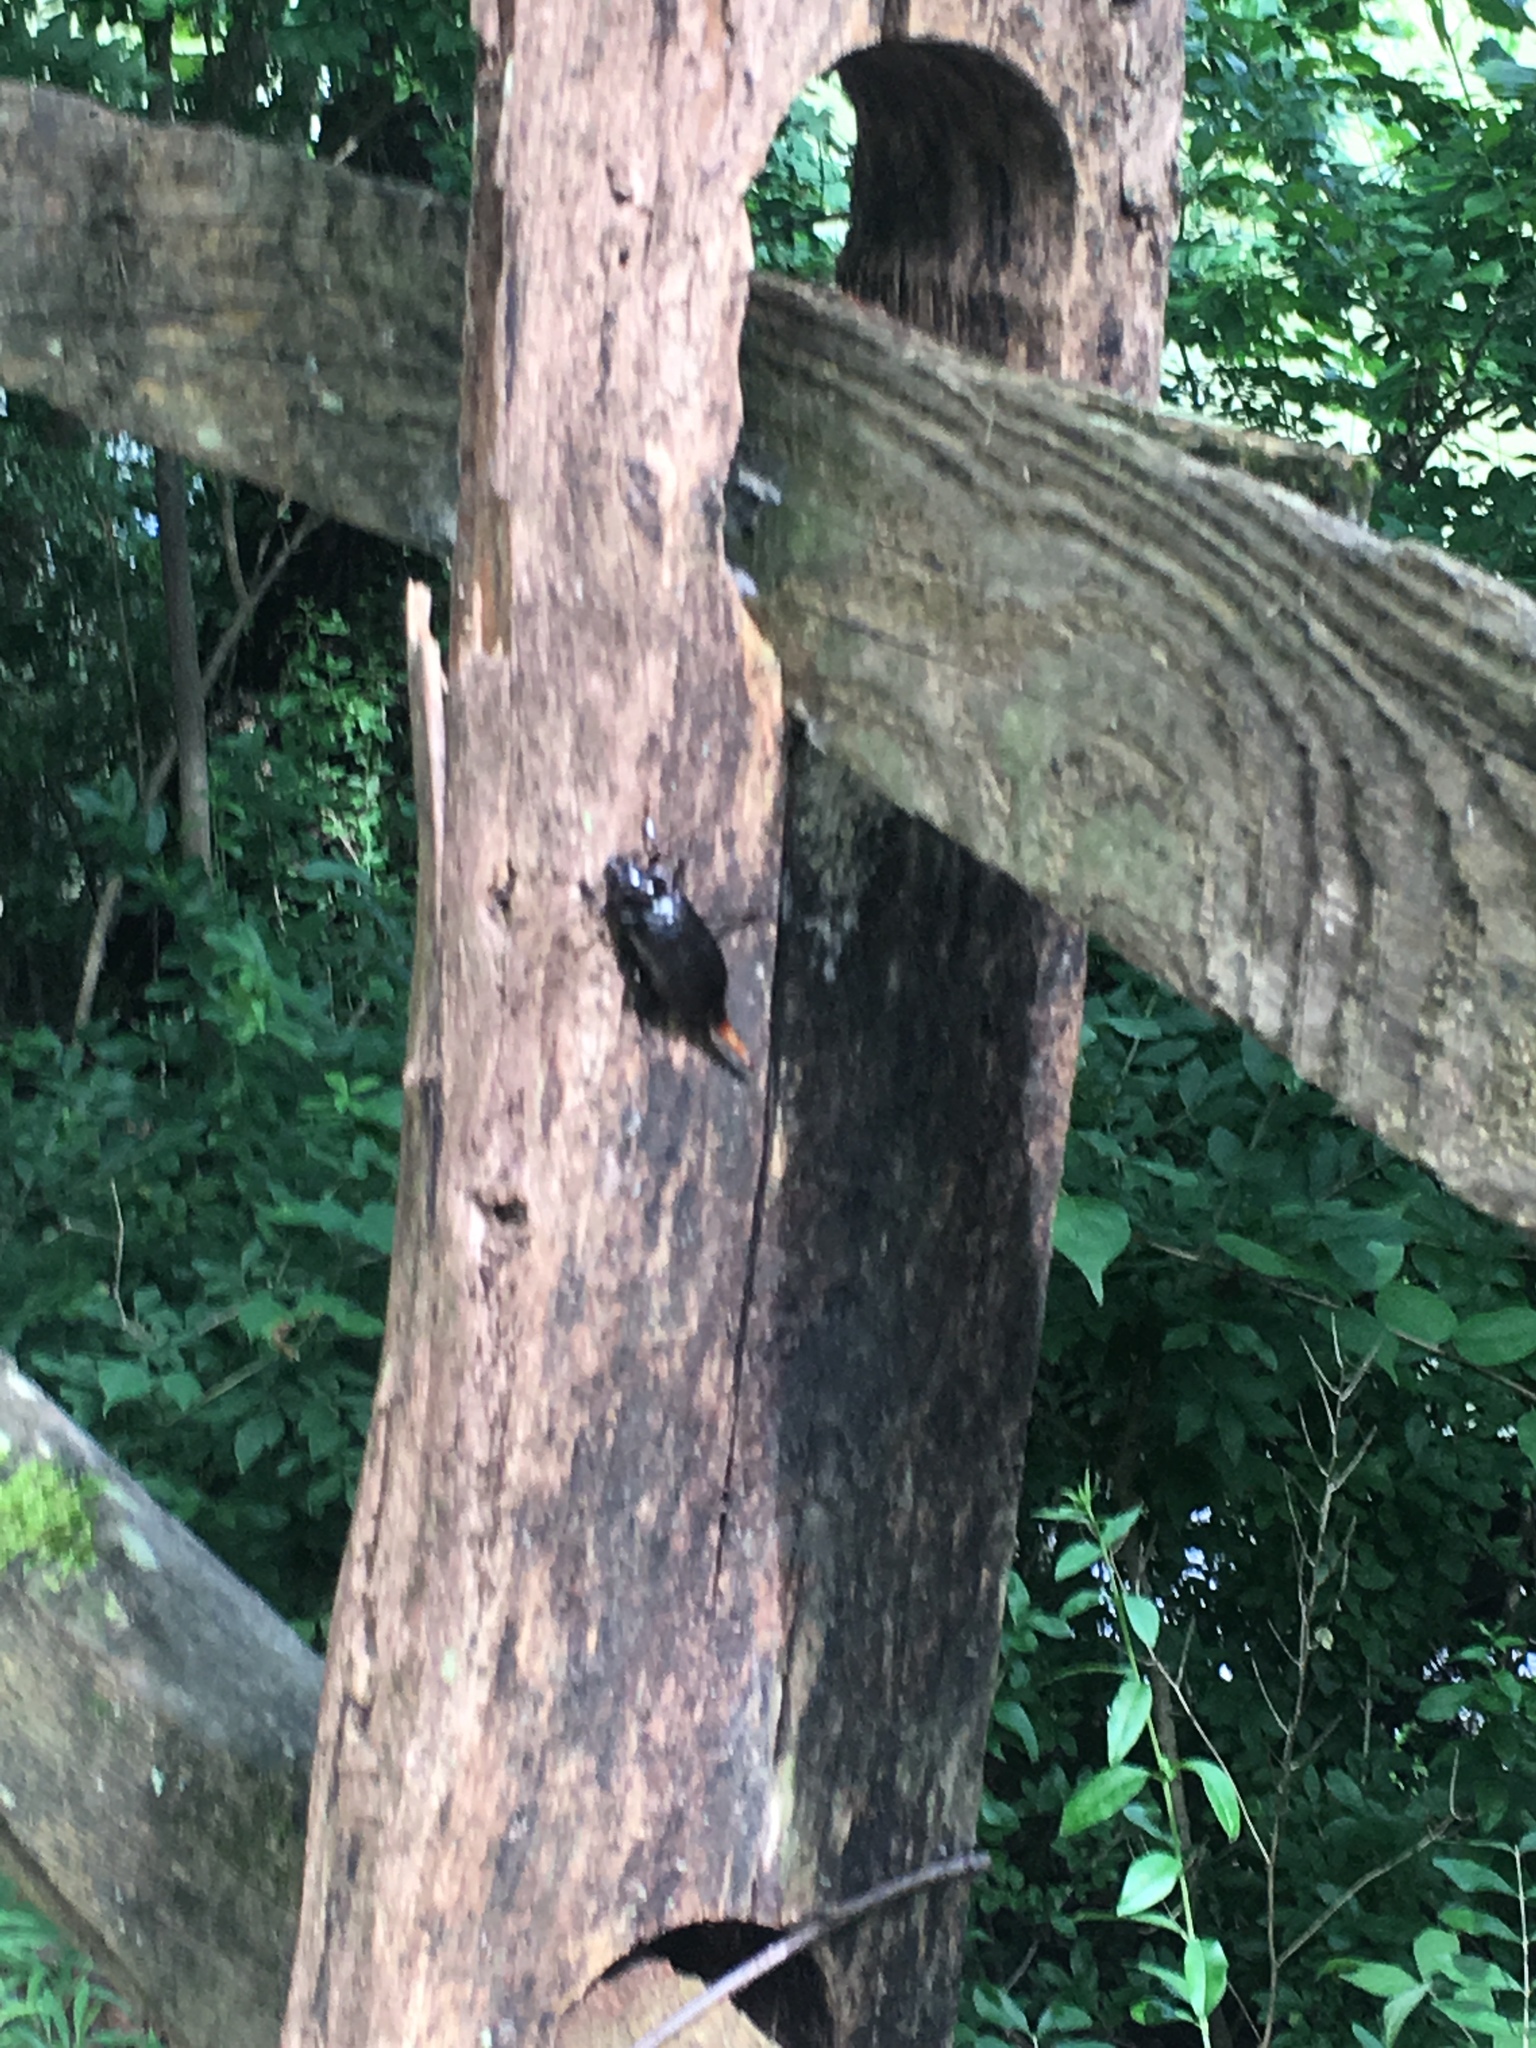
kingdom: Animalia
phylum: Arthropoda
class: Insecta
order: Coleoptera
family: Cerambycidae
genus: Prionus
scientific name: Prionus laticollis
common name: Broad necked prionus
